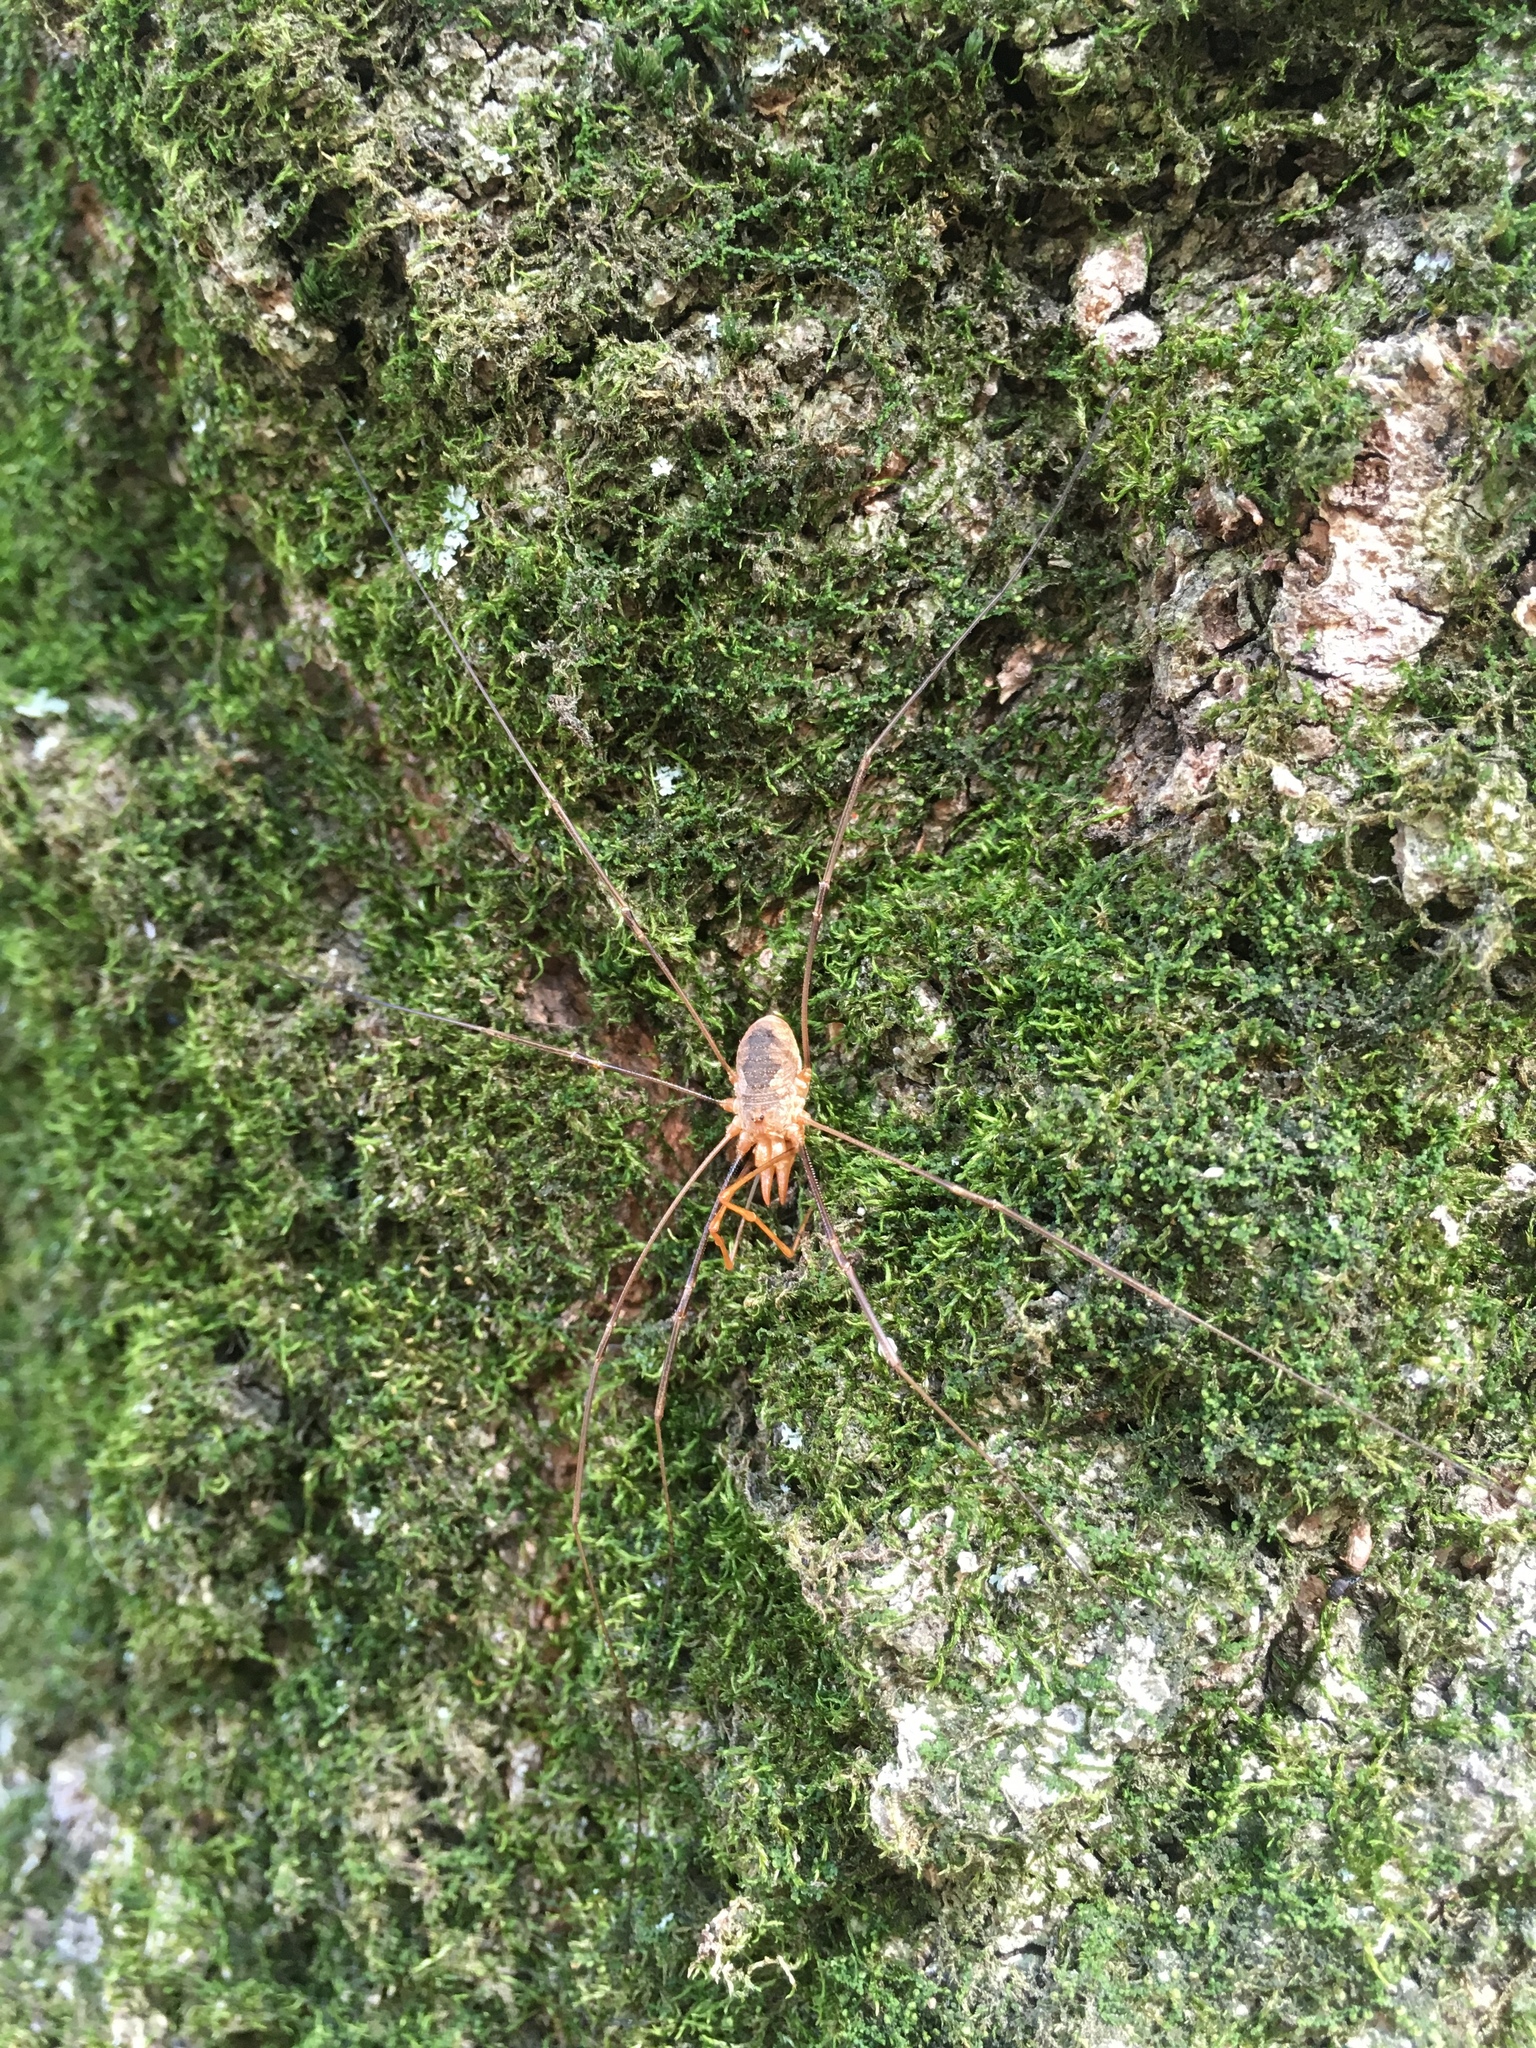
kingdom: Animalia
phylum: Arthropoda
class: Arachnida
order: Opiliones
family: Phalangiidae
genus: Phalangium
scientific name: Phalangium opilio
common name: Daddy longleg
